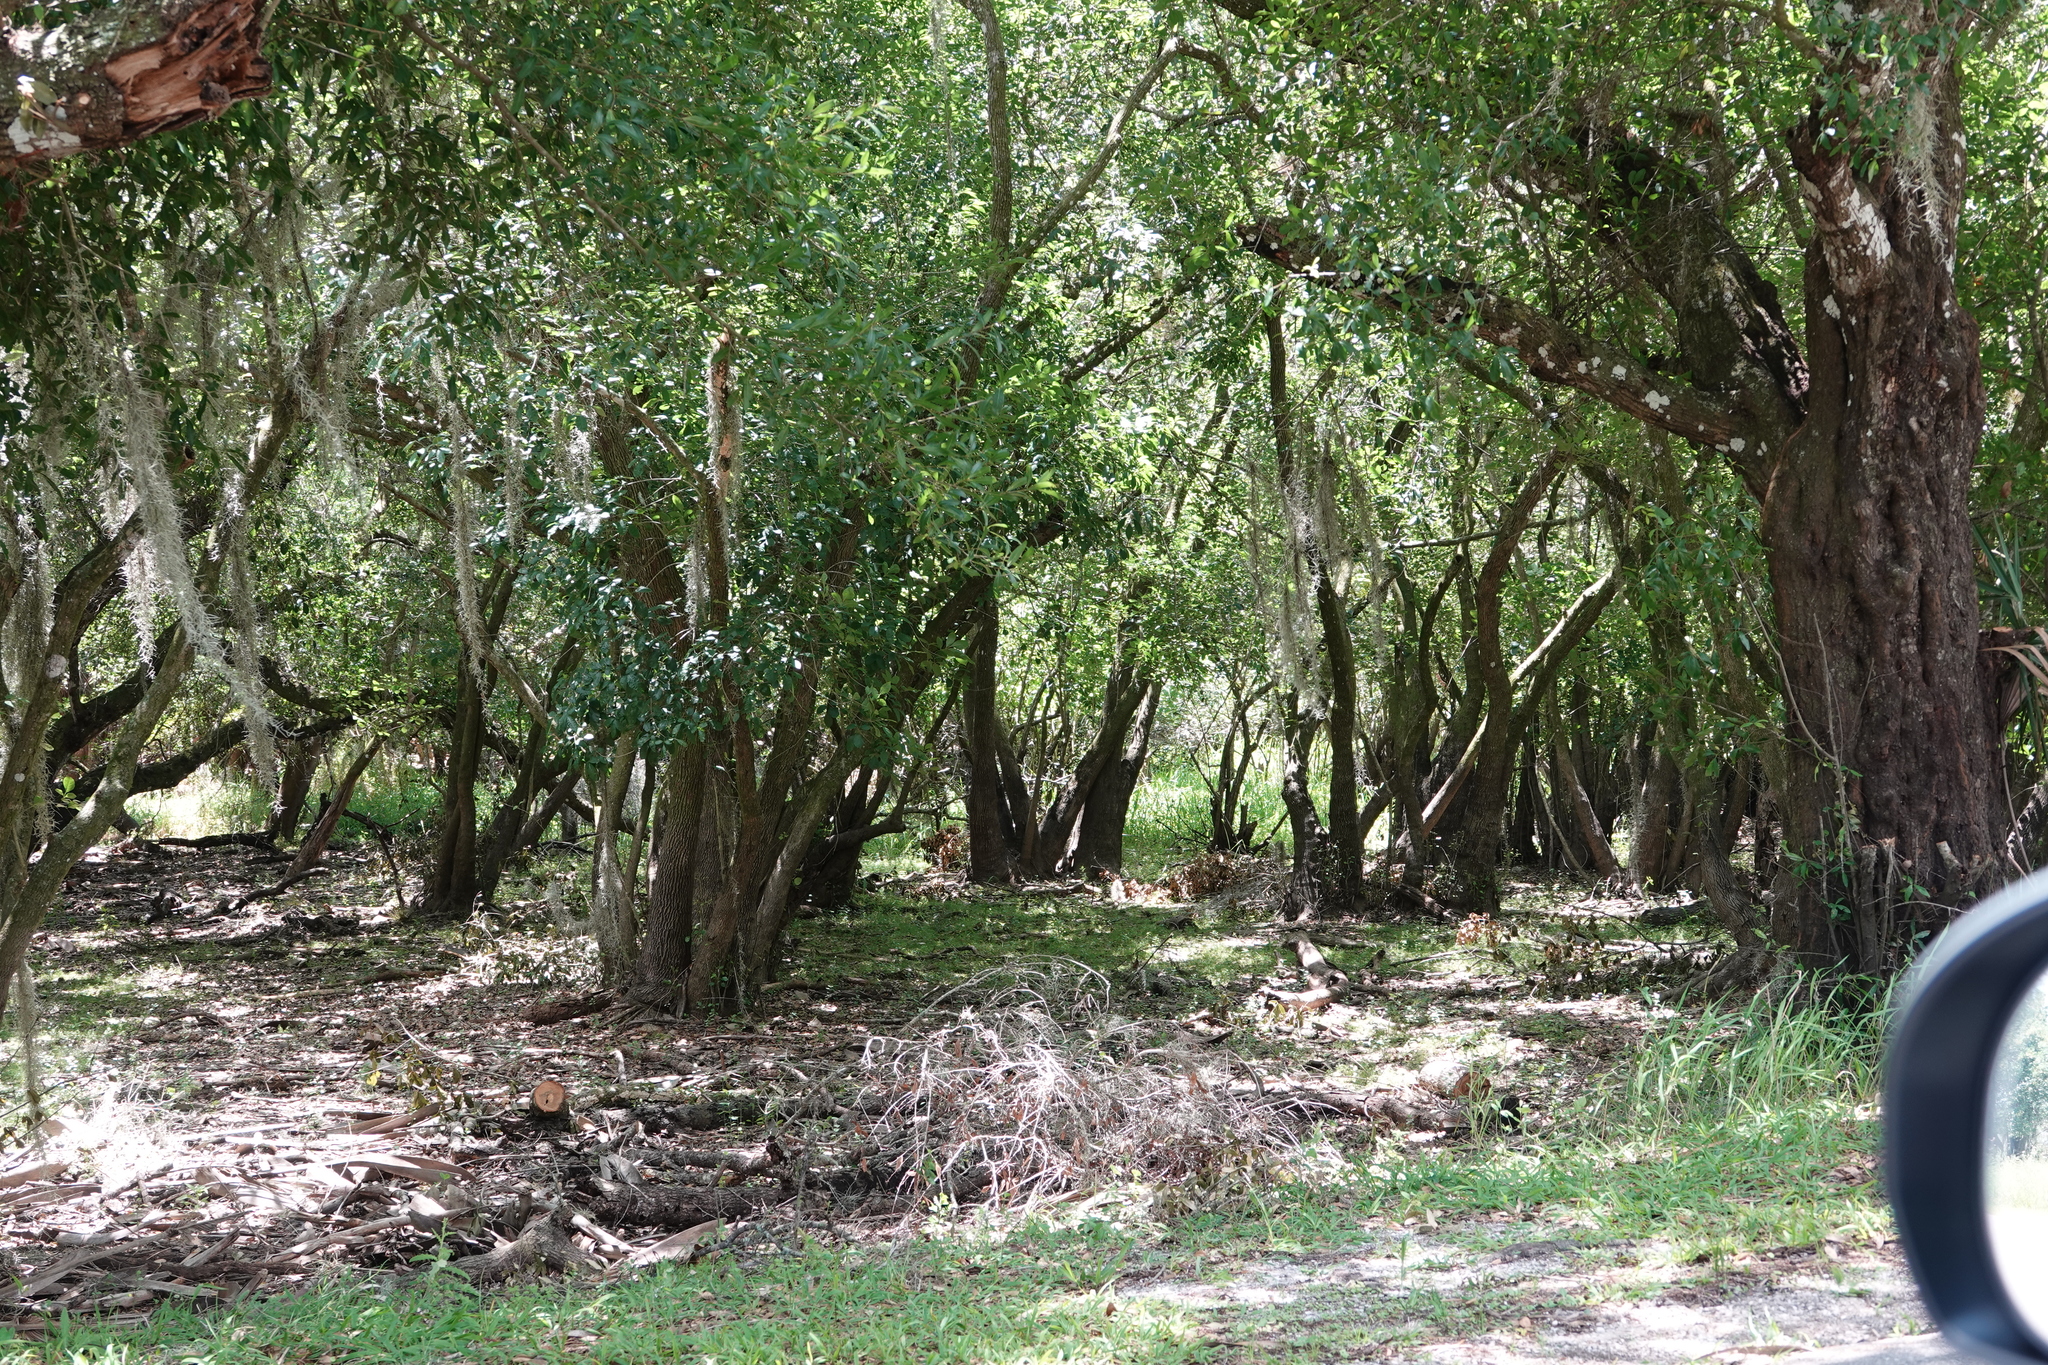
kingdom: Plantae
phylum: Tracheophyta
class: Magnoliopsida
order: Lamiales
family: Oleaceae
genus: Fraxinus
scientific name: Fraxinus caroliniana
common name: Carolina ash
